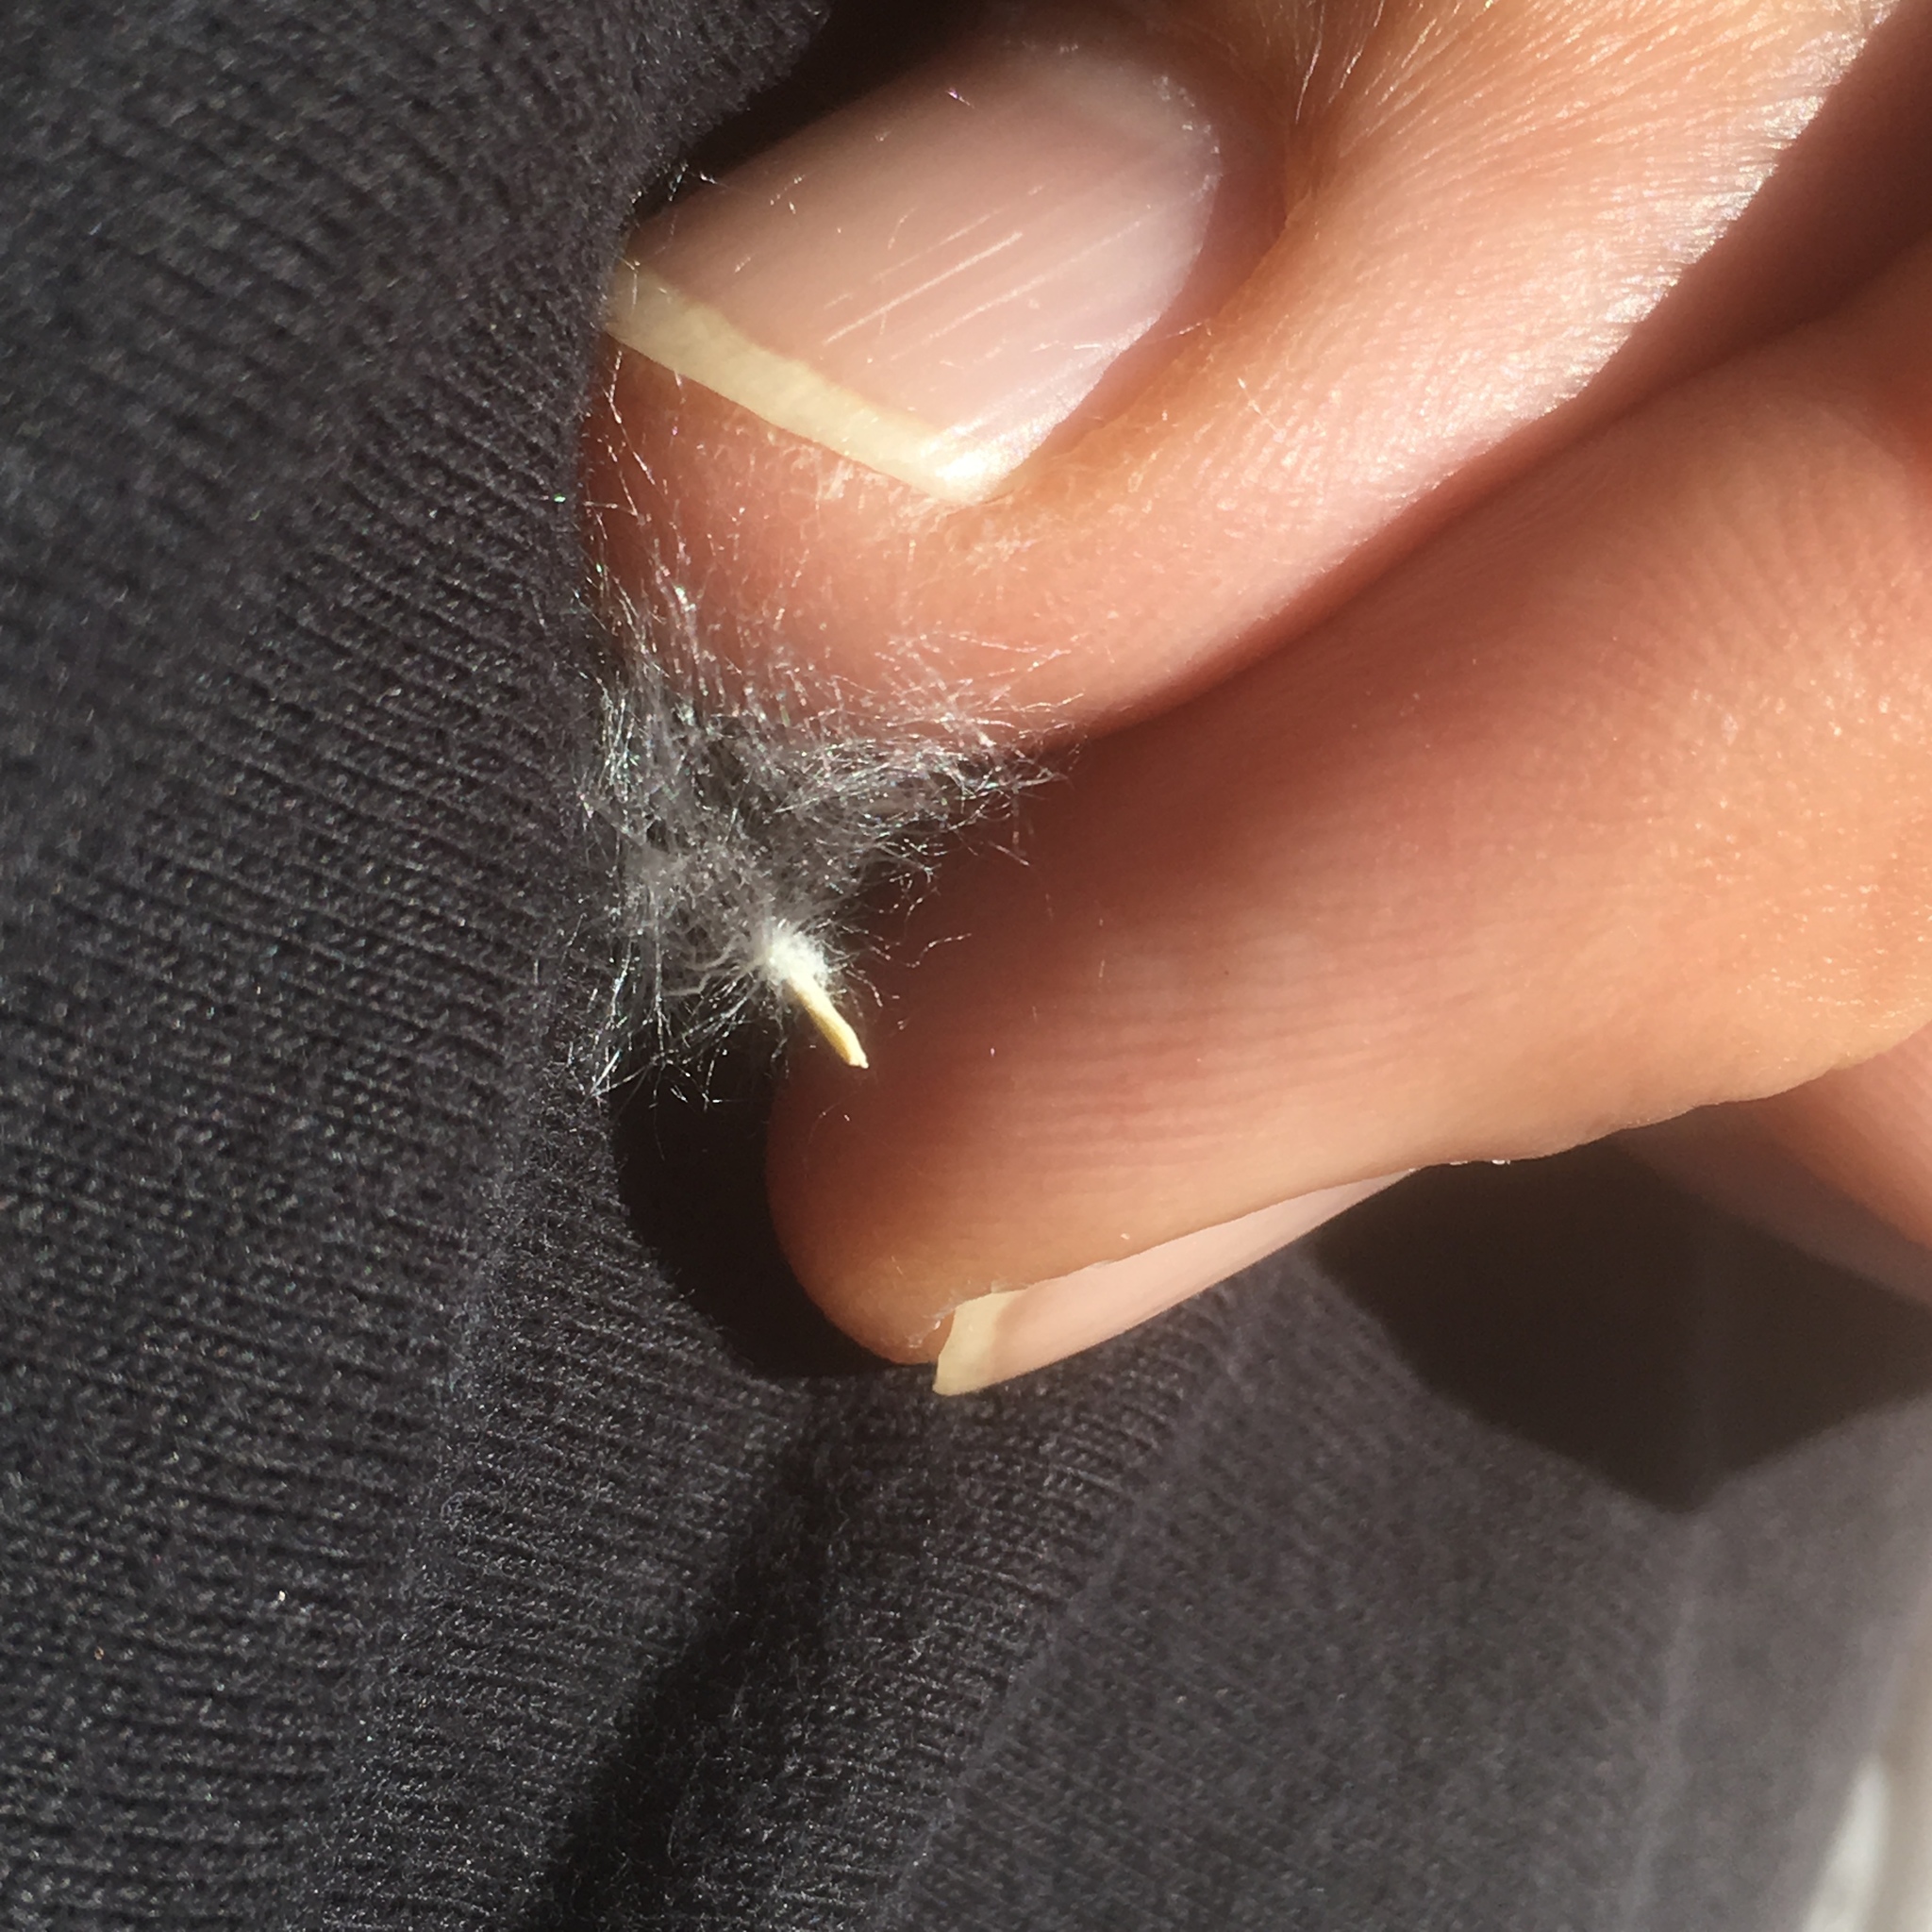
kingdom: Plantae
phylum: Tracheophyta
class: Magnoliopsida
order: Malpighiales
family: Salicaceae
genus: Populus
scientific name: Populus deltoides
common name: Eastern cottonwood
